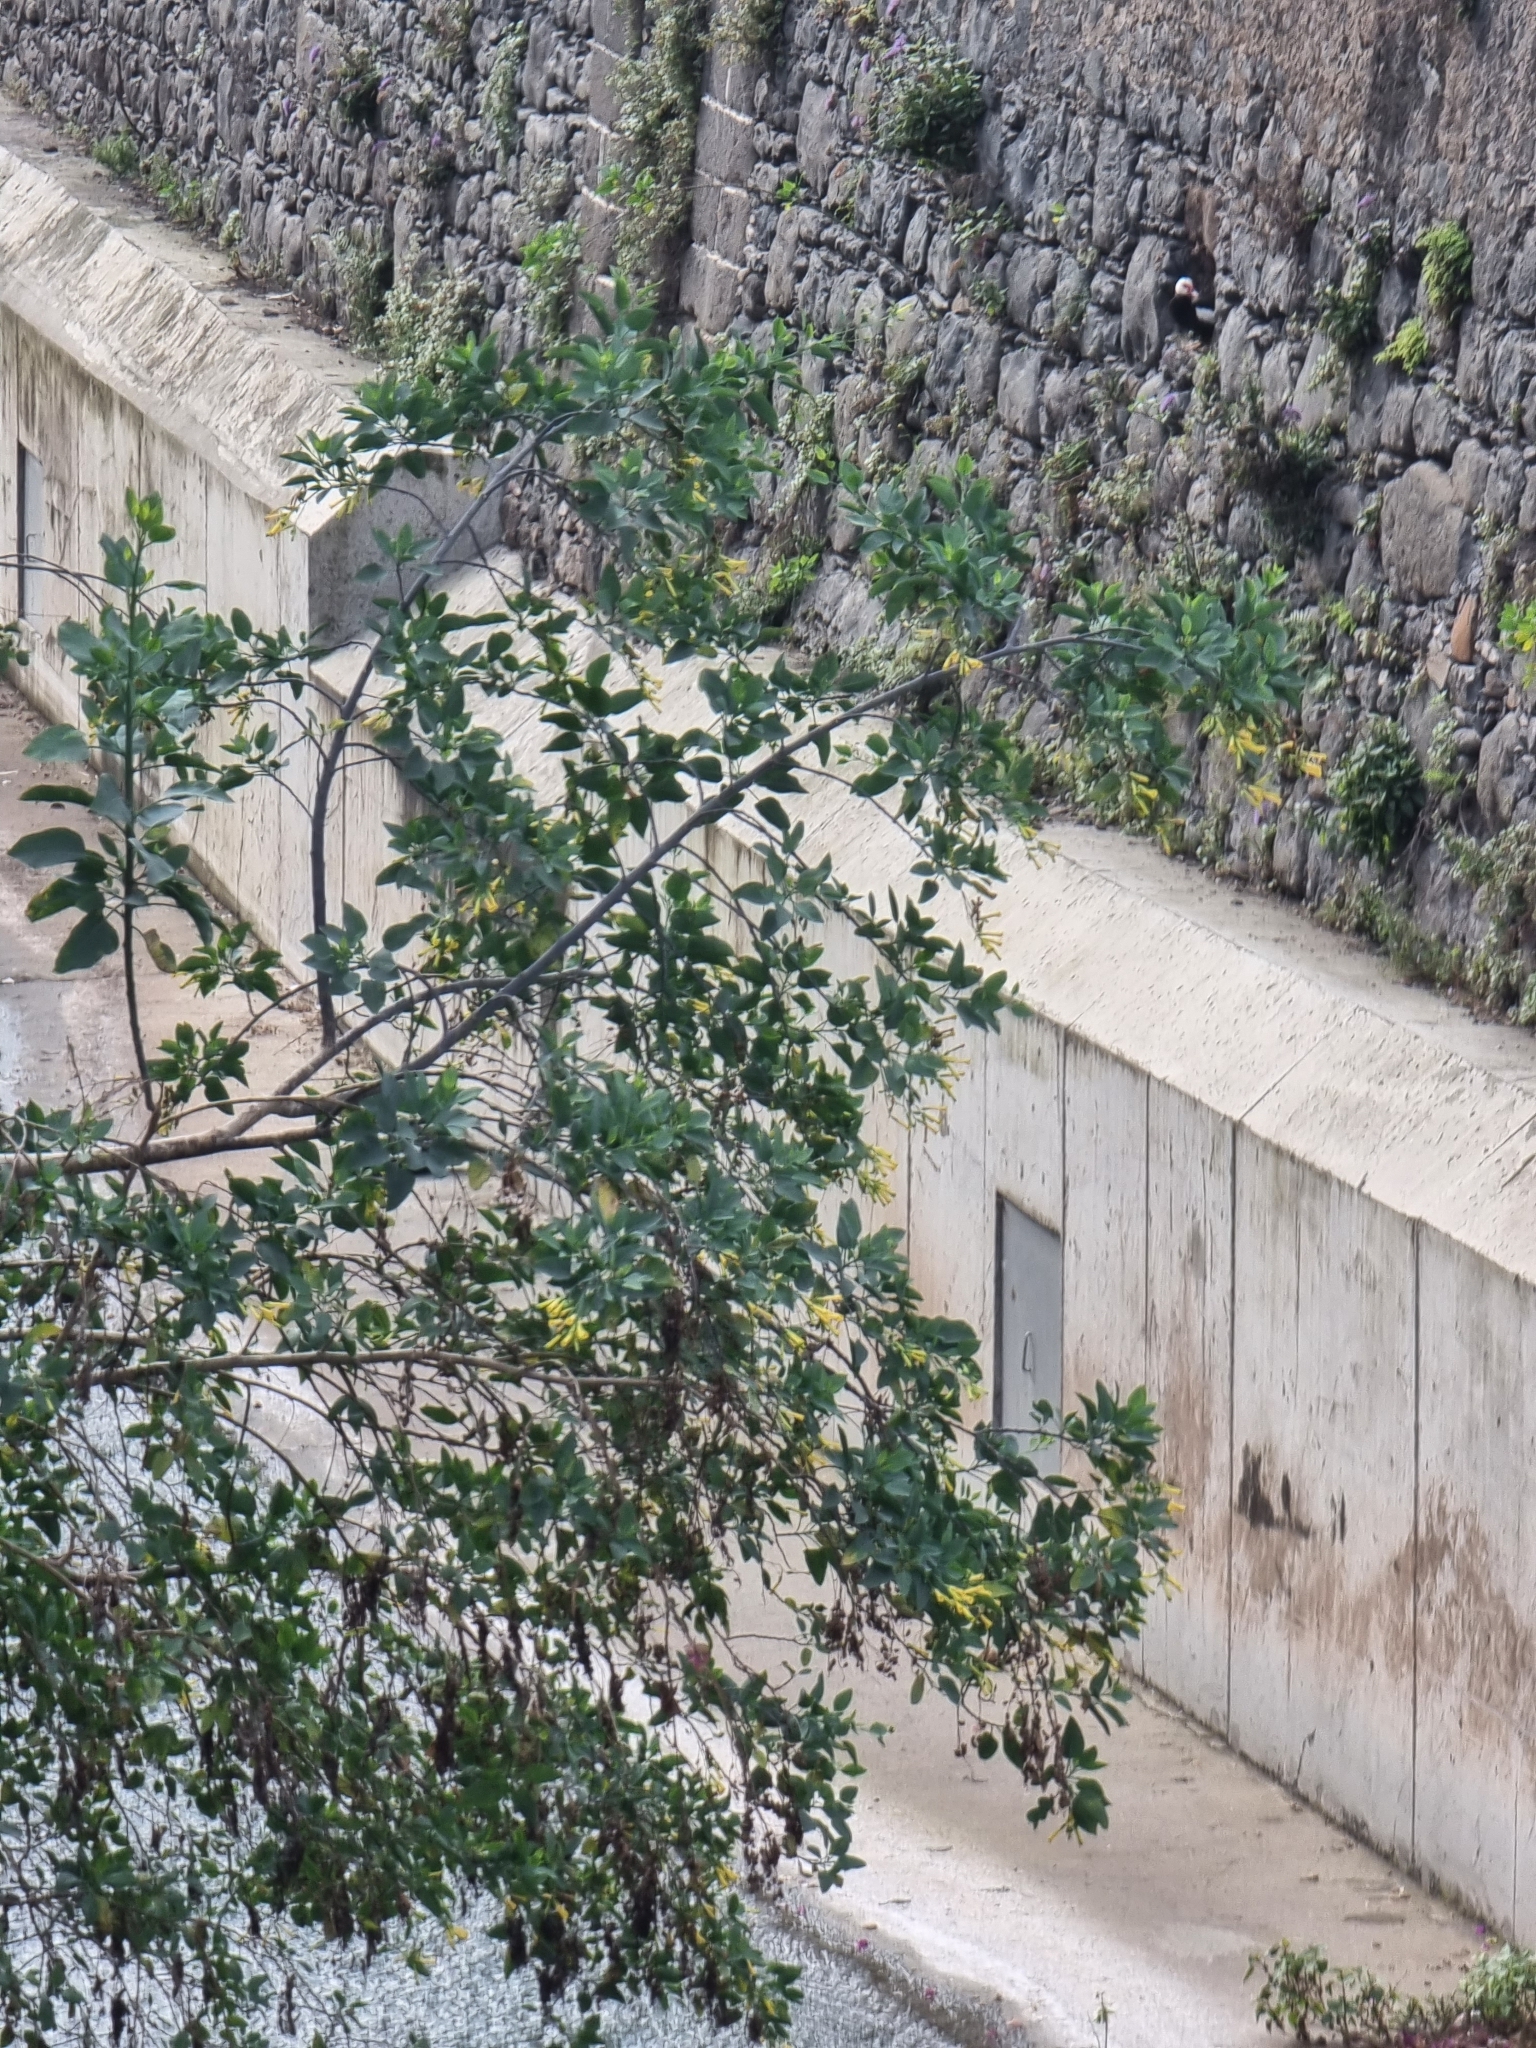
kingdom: Plantae
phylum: Tracheophyta
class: Magnoliopsida
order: Solanales
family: Solanaceae
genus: Nicotiana
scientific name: Nicotiana glauca
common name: Tree tobacco
